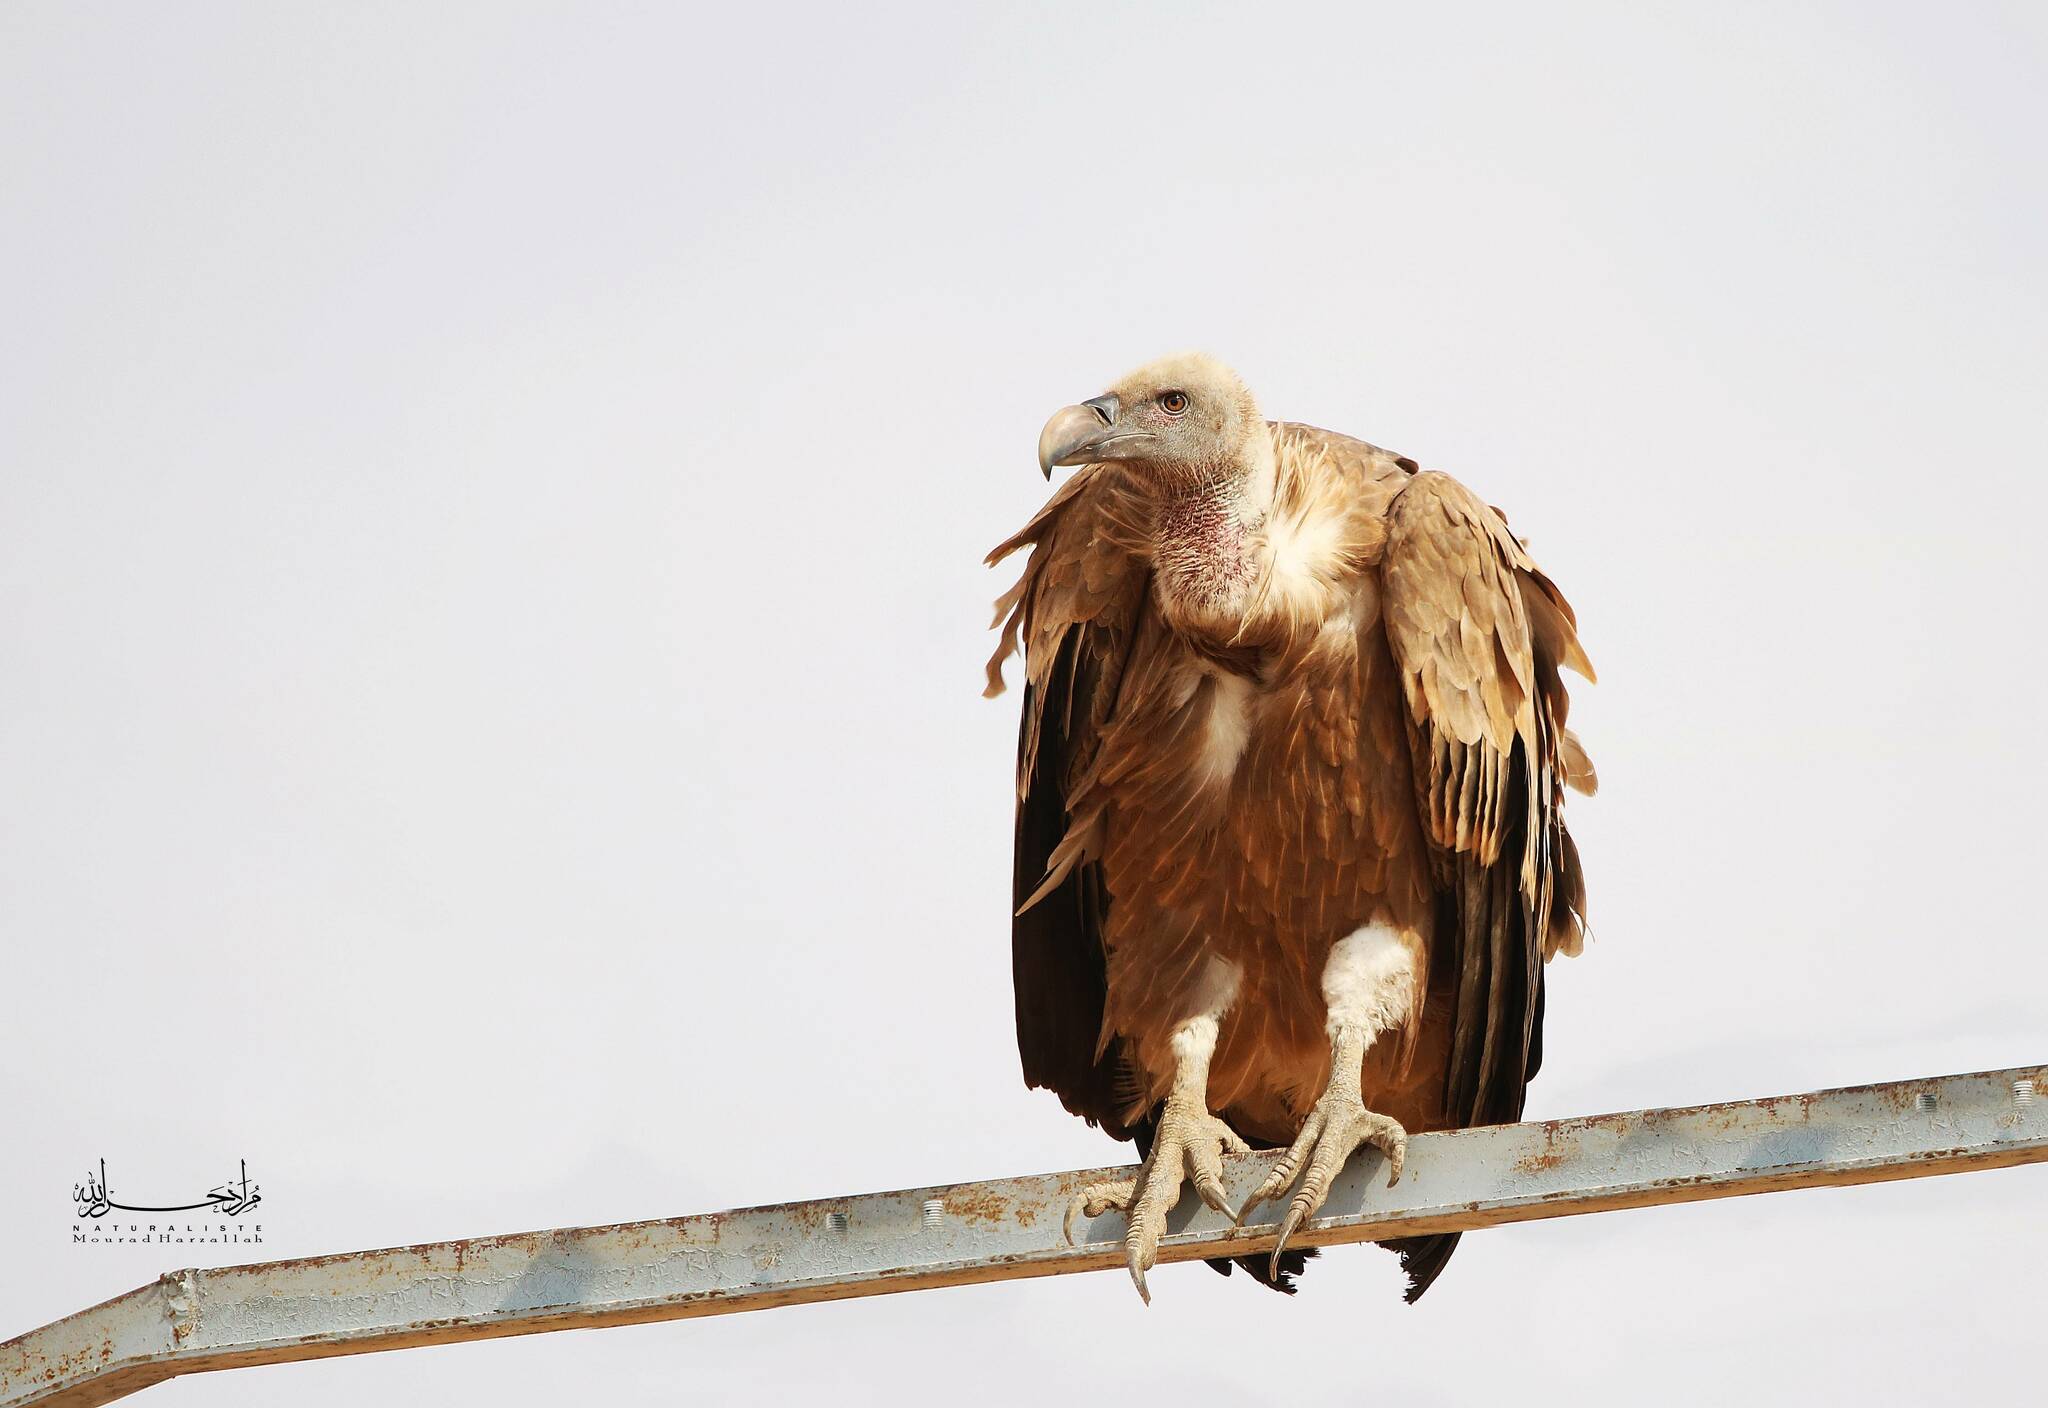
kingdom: Animalia
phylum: Chordata
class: Aves
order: Accipitriformes
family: Accipitridae
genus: Gyps
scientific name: Gyps fulvus
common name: Griffon vulture
